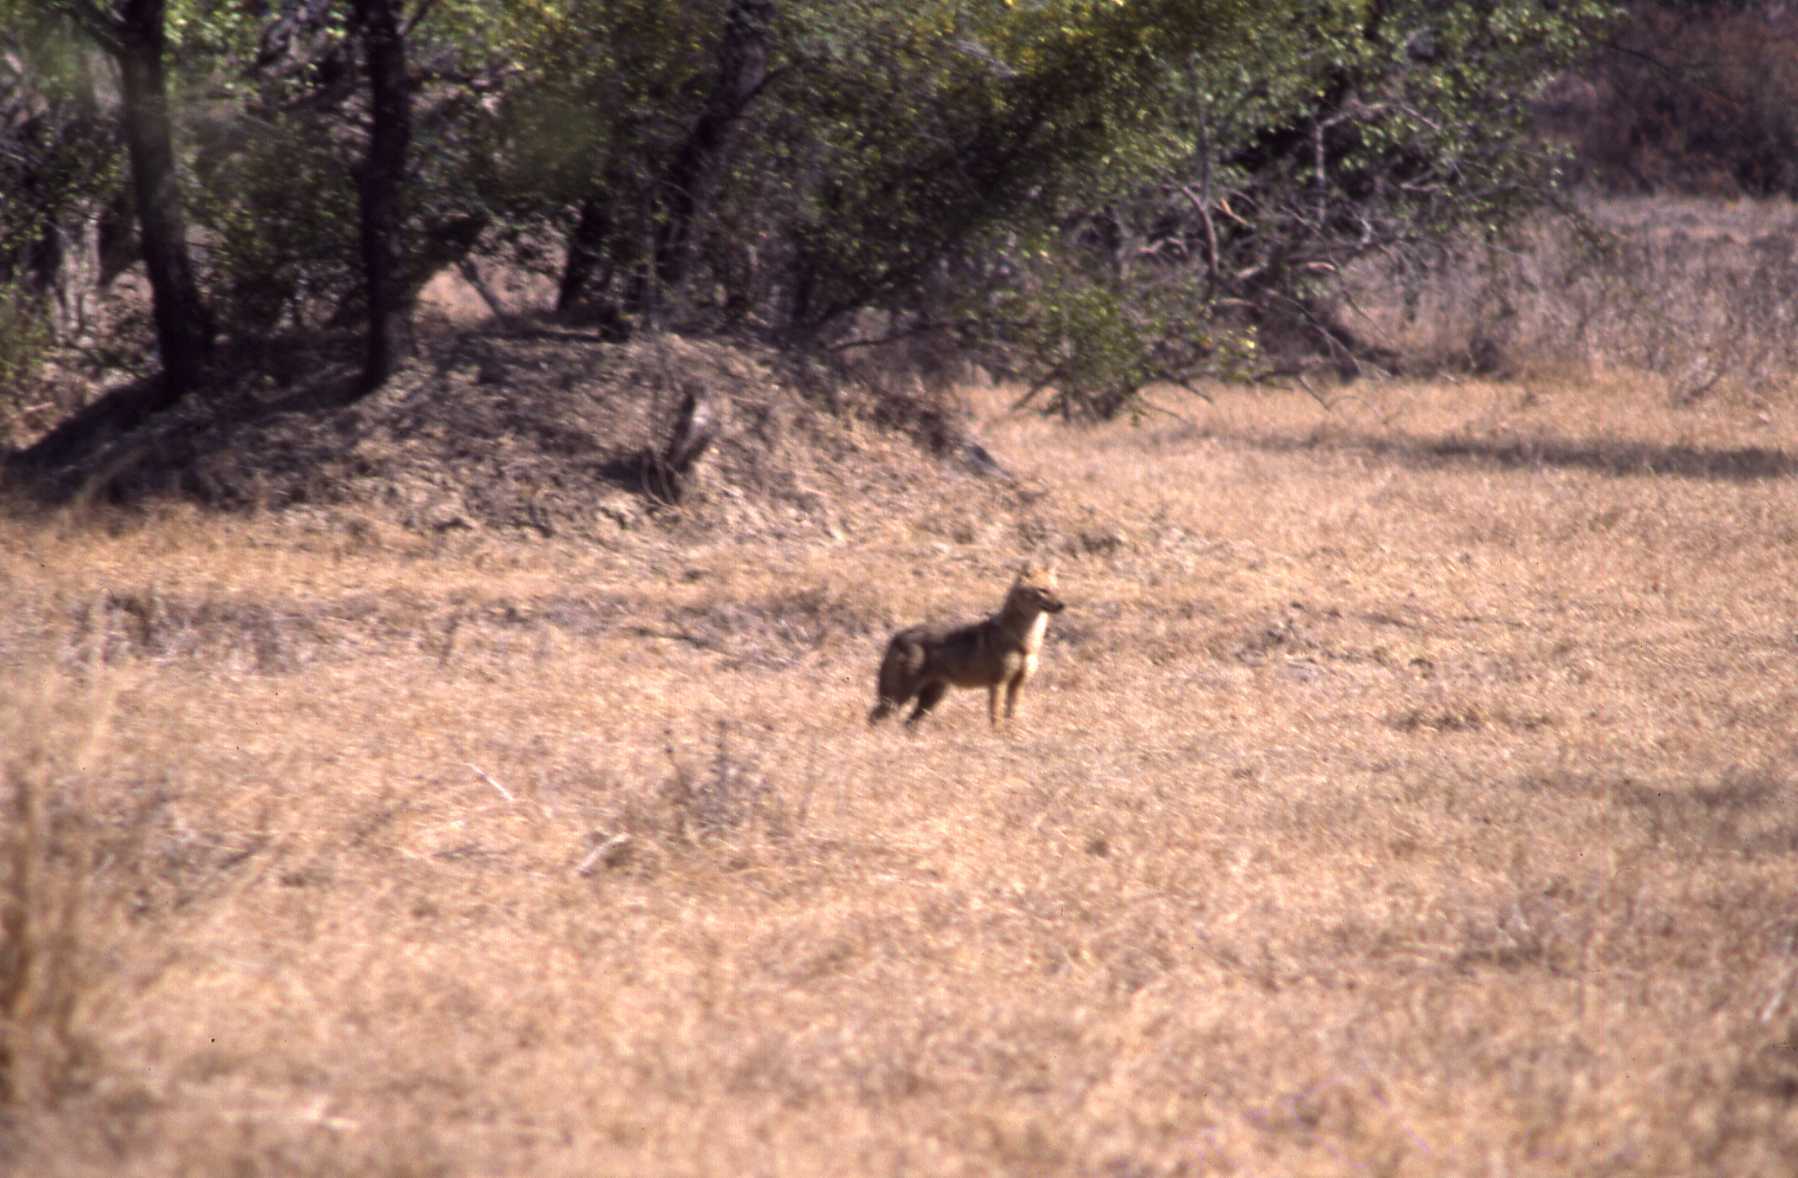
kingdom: Animalia
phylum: Chordata
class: Mammalia
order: Carnivora
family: Canidae
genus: Canis
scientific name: Canis aureus
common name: Golden jackal
